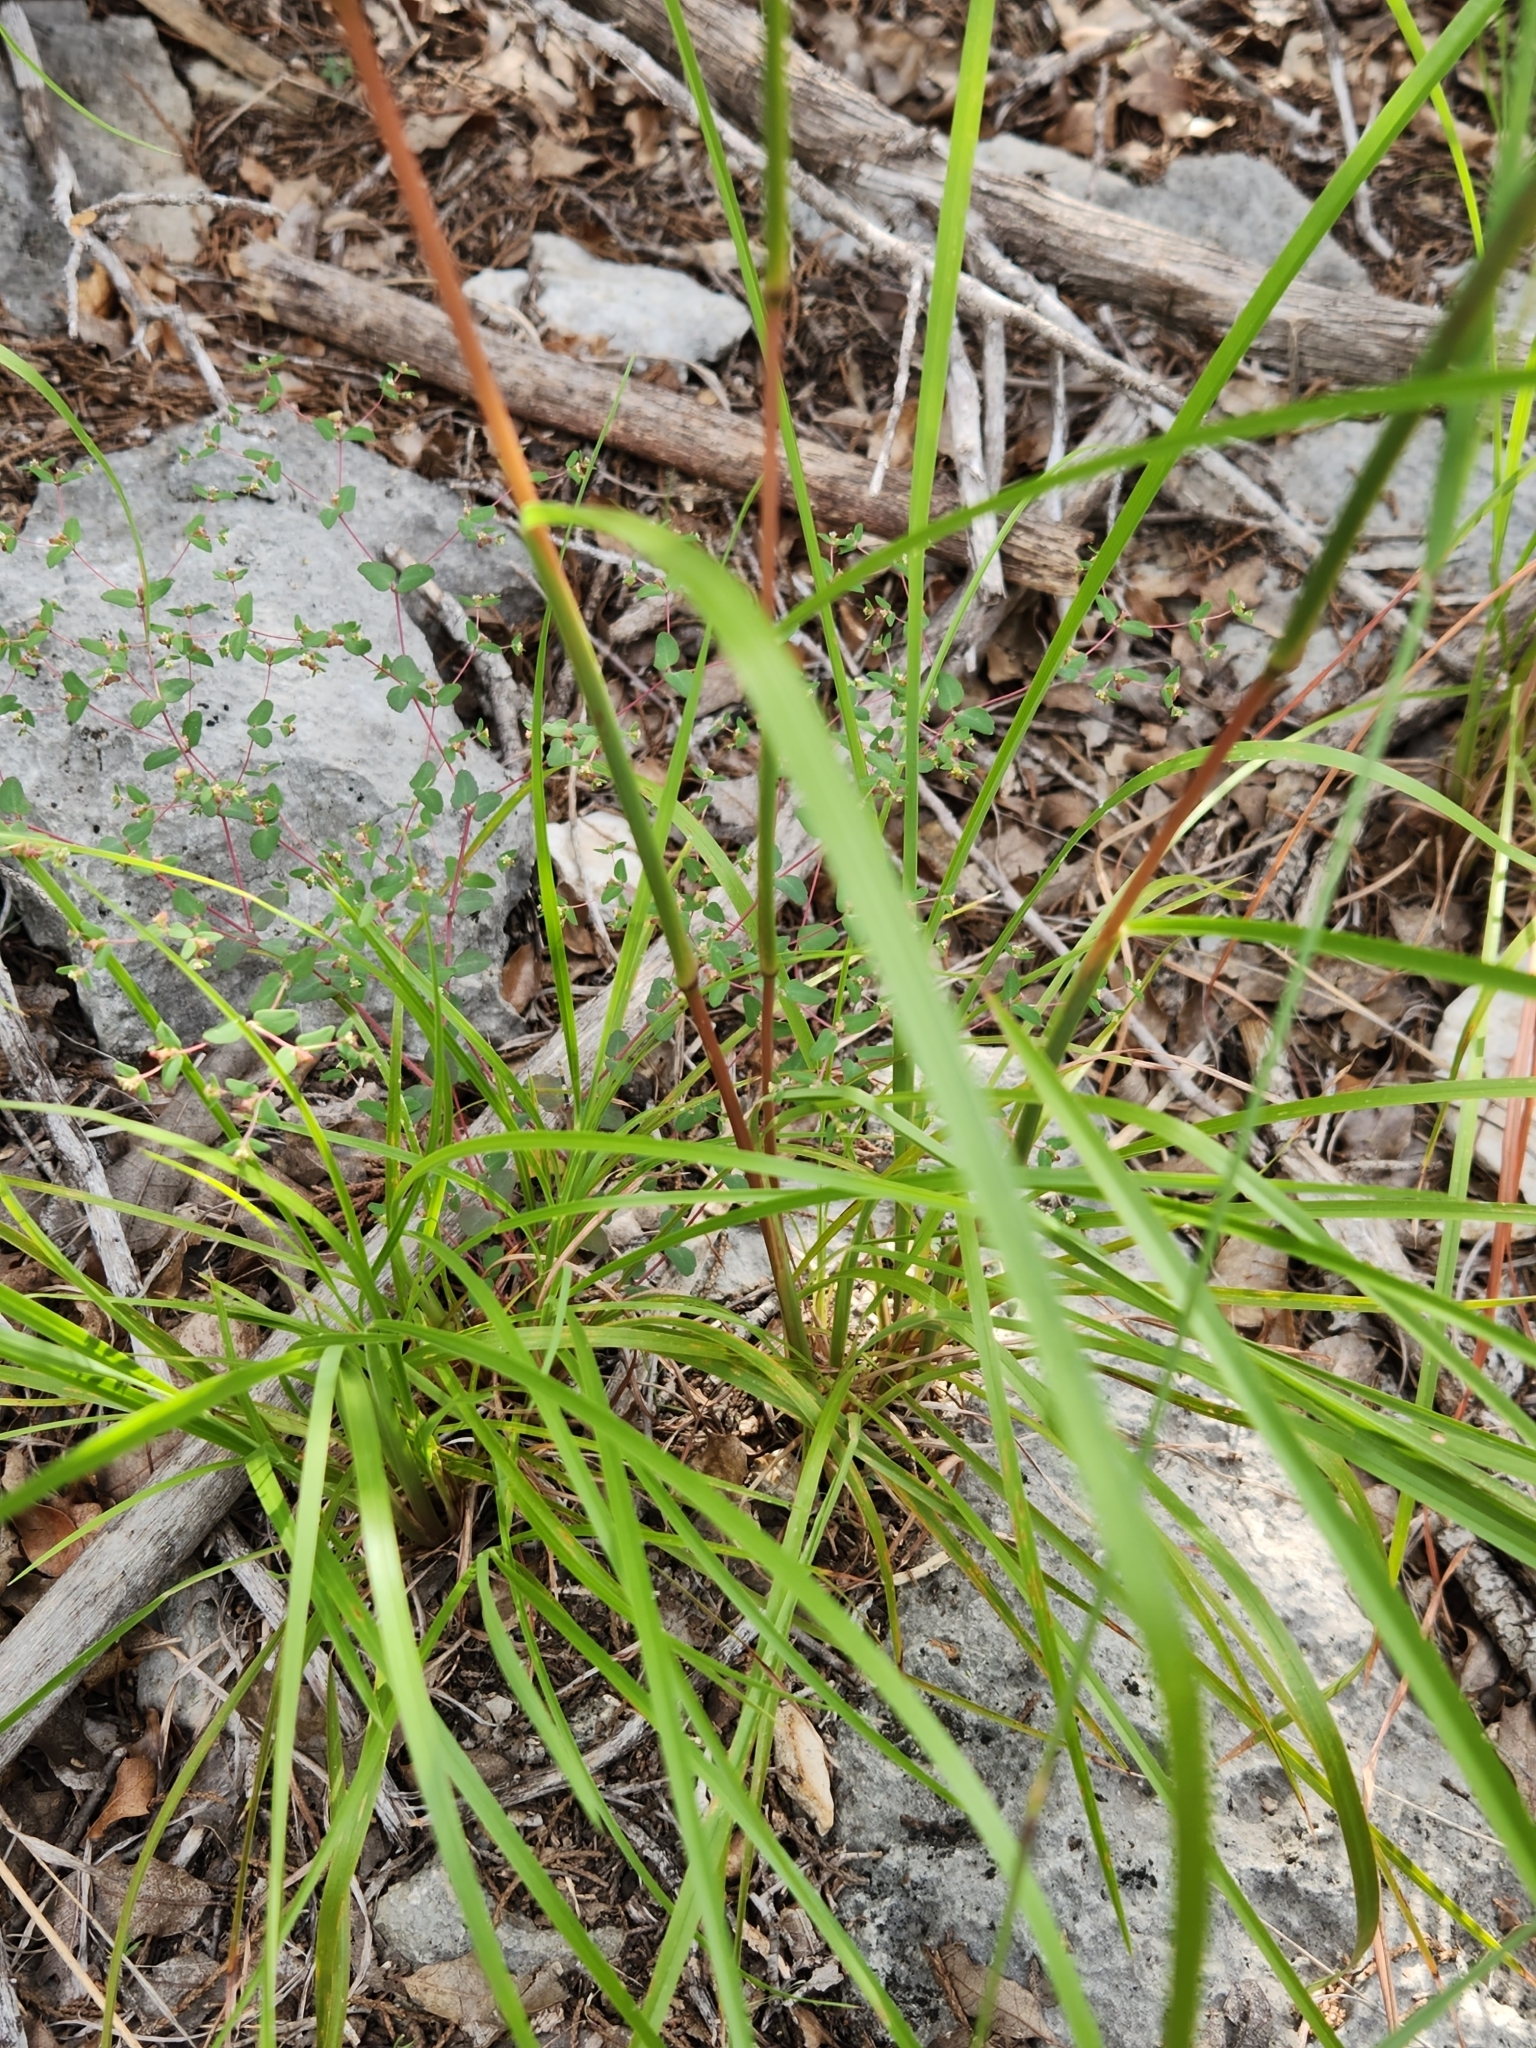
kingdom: Plantae
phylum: Tracheophyta
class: Liliopsida
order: Poales
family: Poaceae
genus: Schizachyrium
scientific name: Schizachyrium scoparium
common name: Little bluestem
